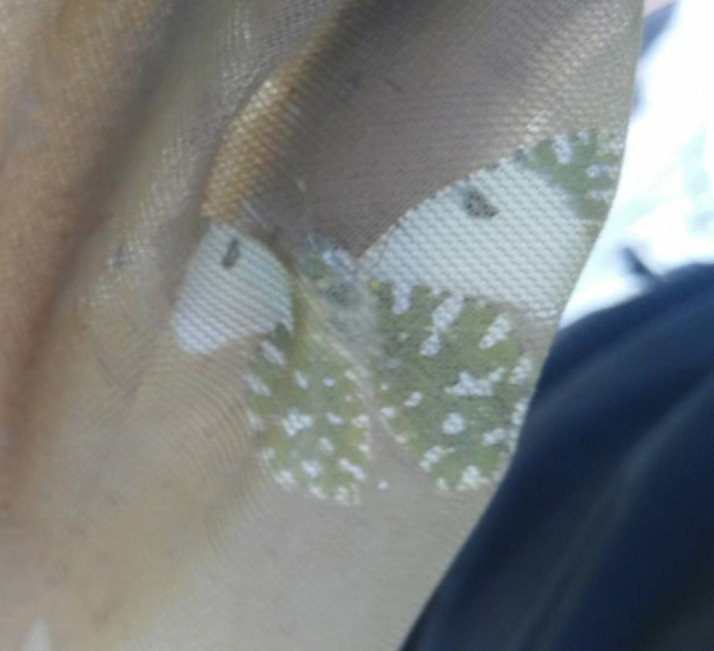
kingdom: Animalia
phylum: Arthropoda
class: Insecta
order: Lepidoptera
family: Pieridae
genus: Euchloe
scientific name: Euchloe crameri
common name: Western dappled white
